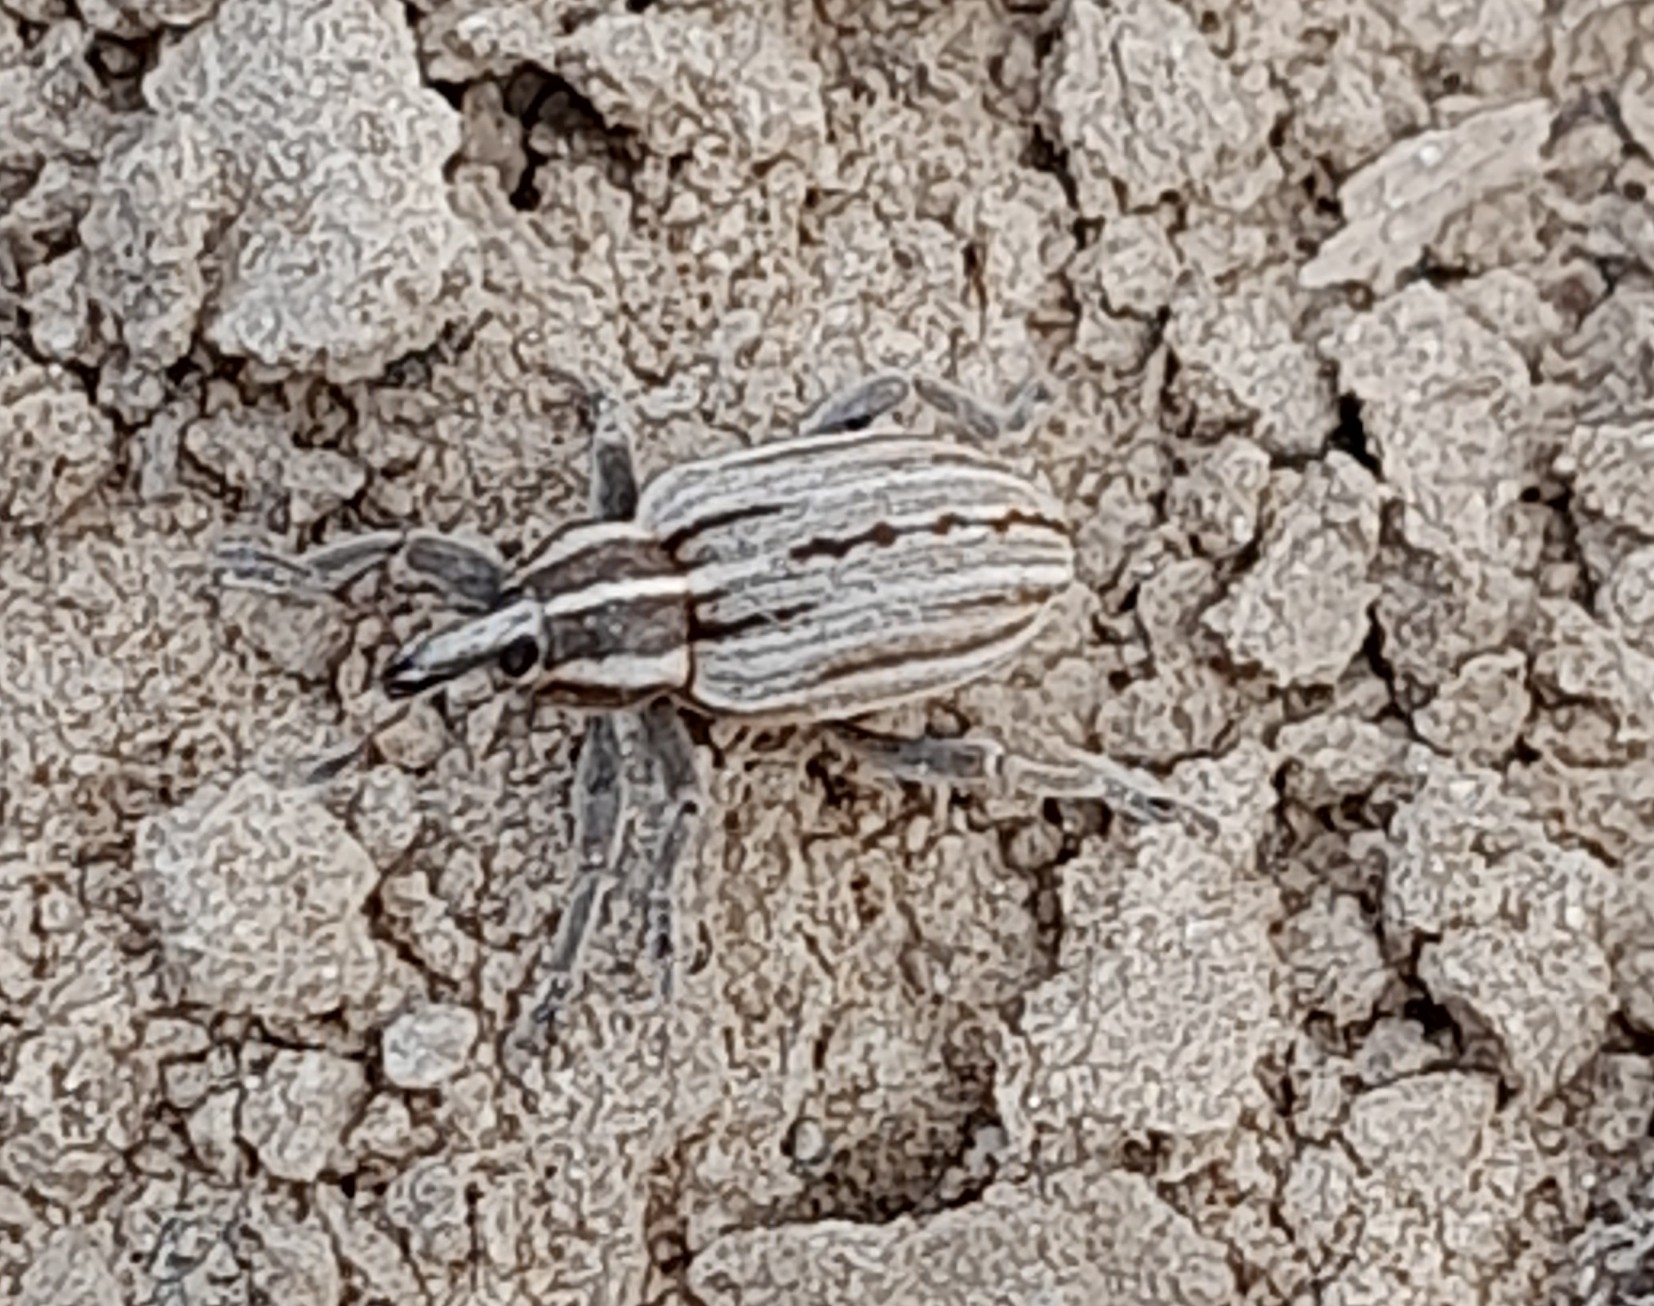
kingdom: Animalia
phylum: Arthropoda
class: Insecta
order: Coleoptera
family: Curculionidae
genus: Hypera
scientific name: Hypera arator
